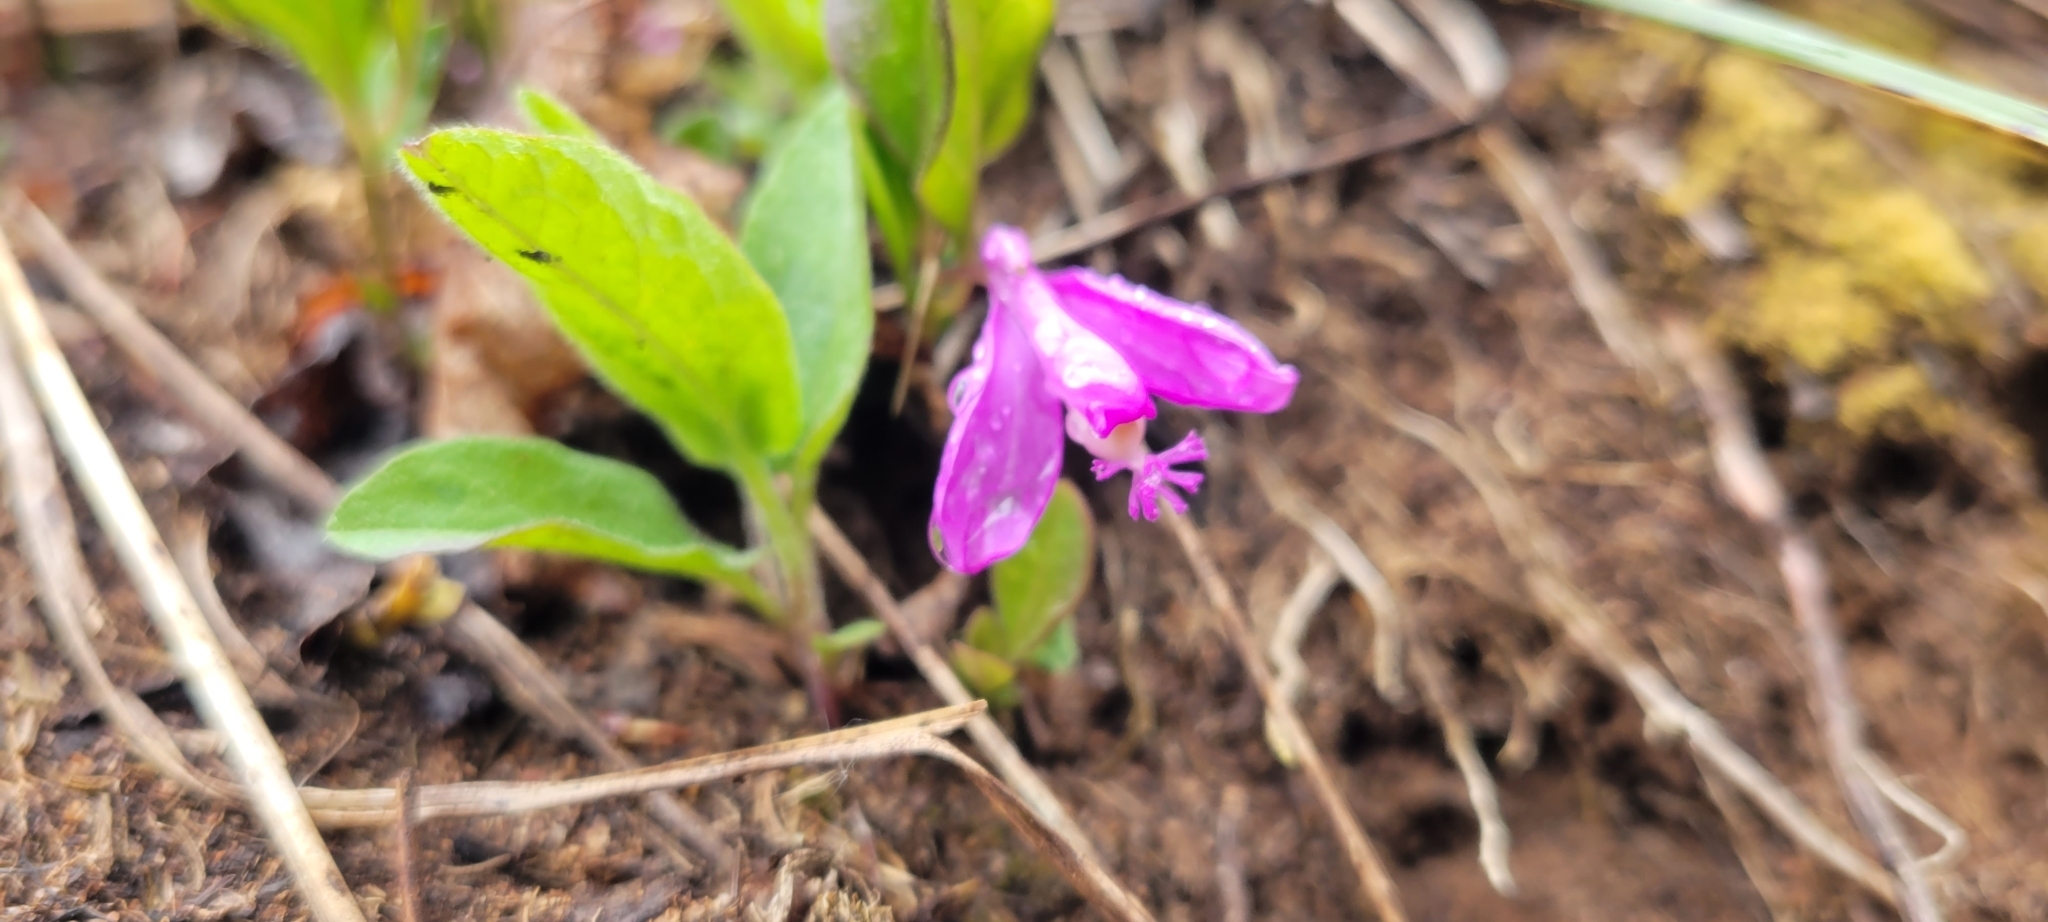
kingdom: Plantae
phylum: Tracheophyta
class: Magnoliopsida
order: Fabales
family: Polygalaceae
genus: Polygaloides
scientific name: Polygaloides paucifolia
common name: Bird-on-the-wing
